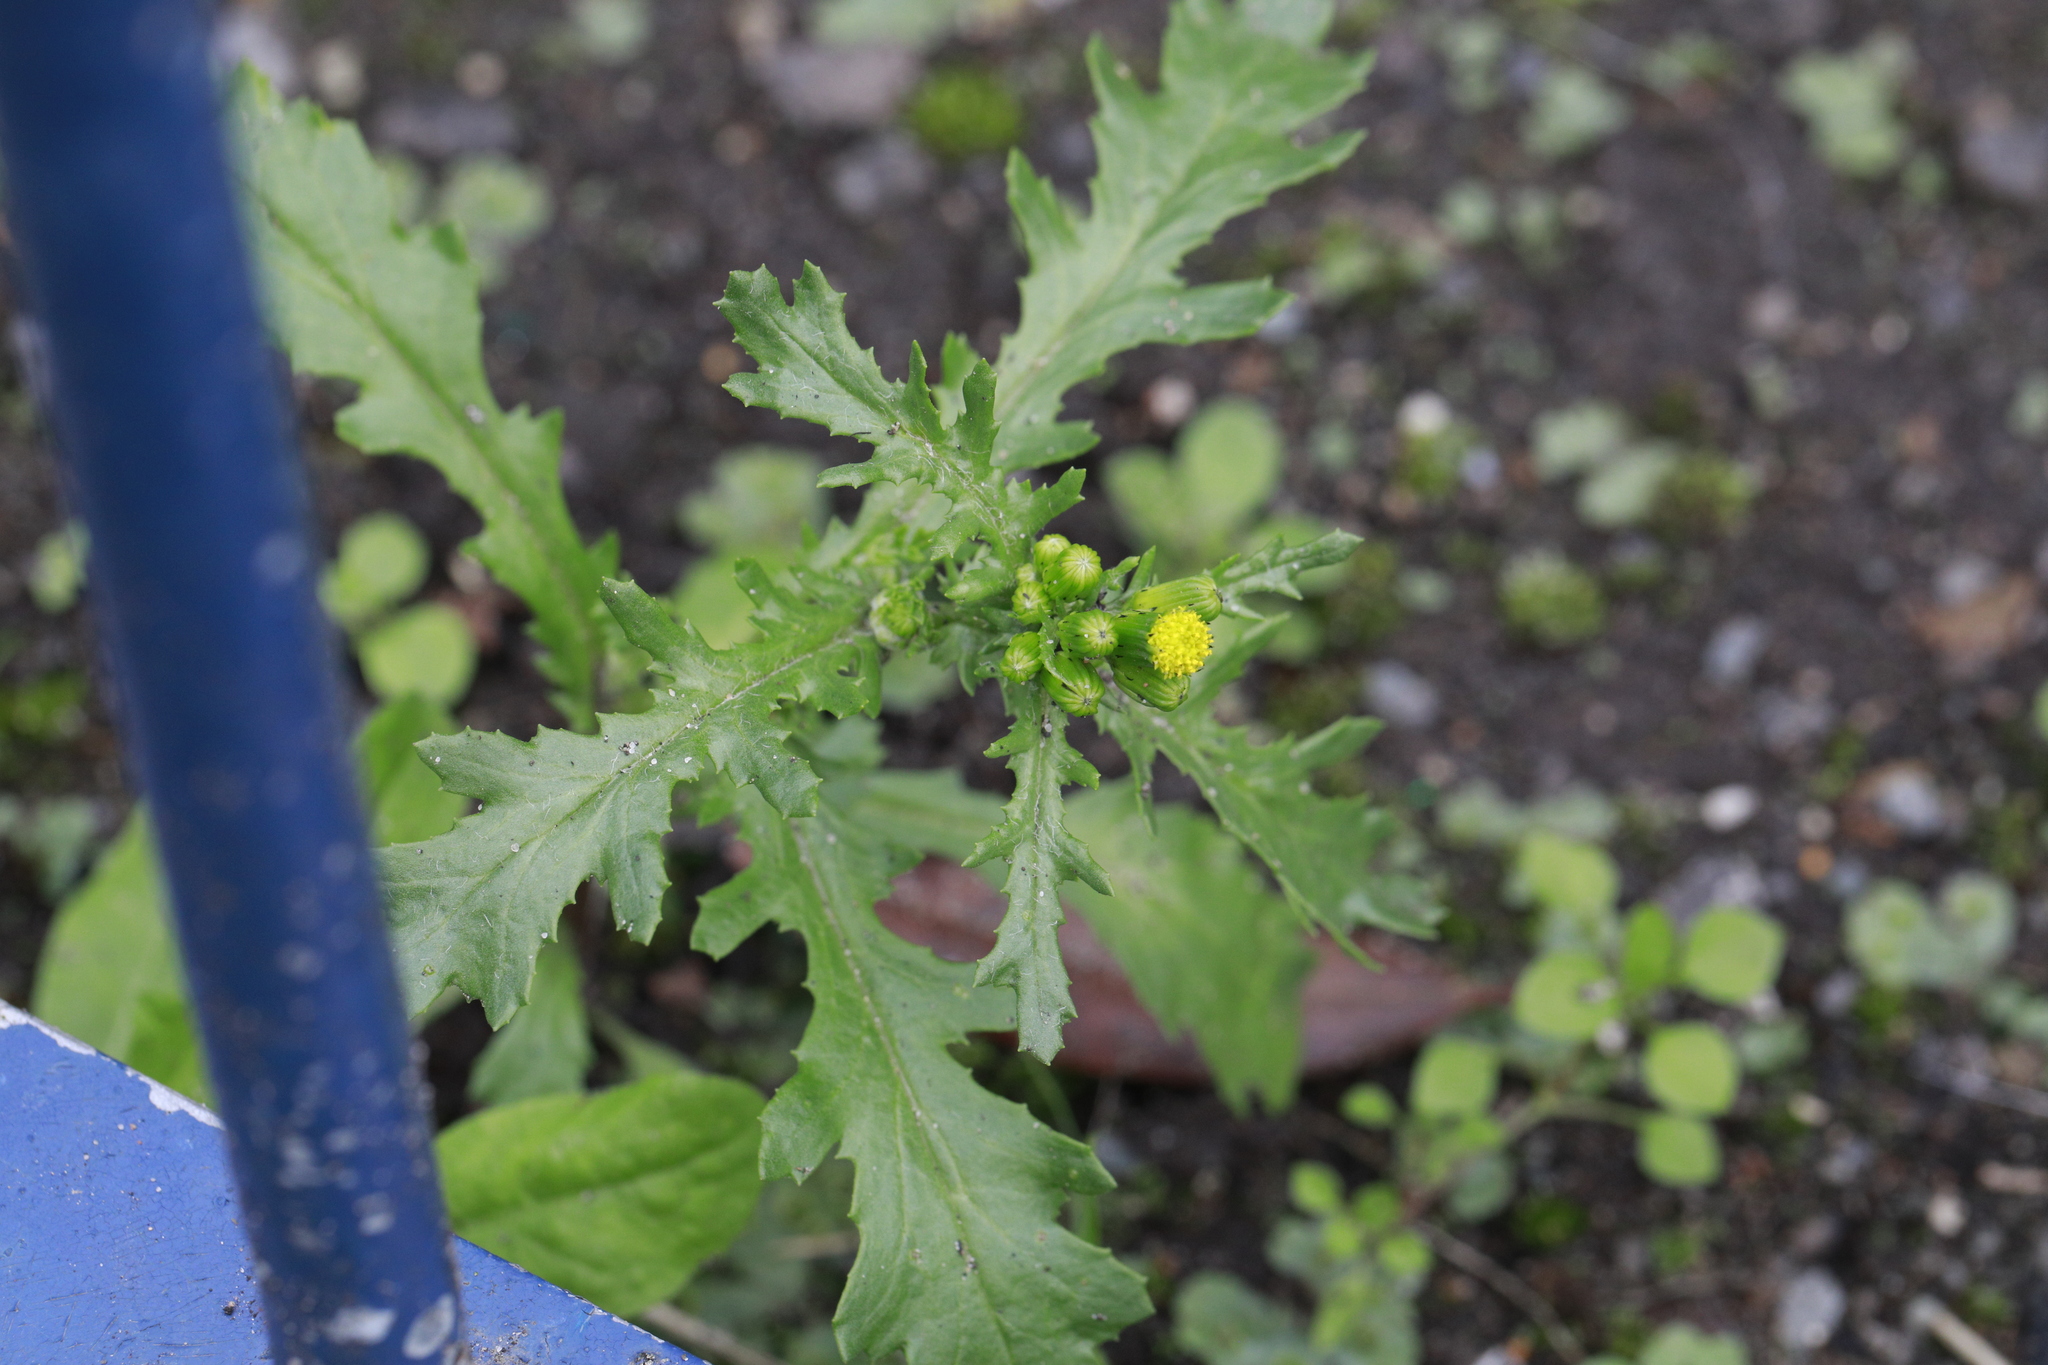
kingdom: Plantae
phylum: Tracheophyta
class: Magnoliopsida
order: Asterales
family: Asteraceae
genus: Senecio
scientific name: Senecio vulgaris
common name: Old-man-in-the-spring
